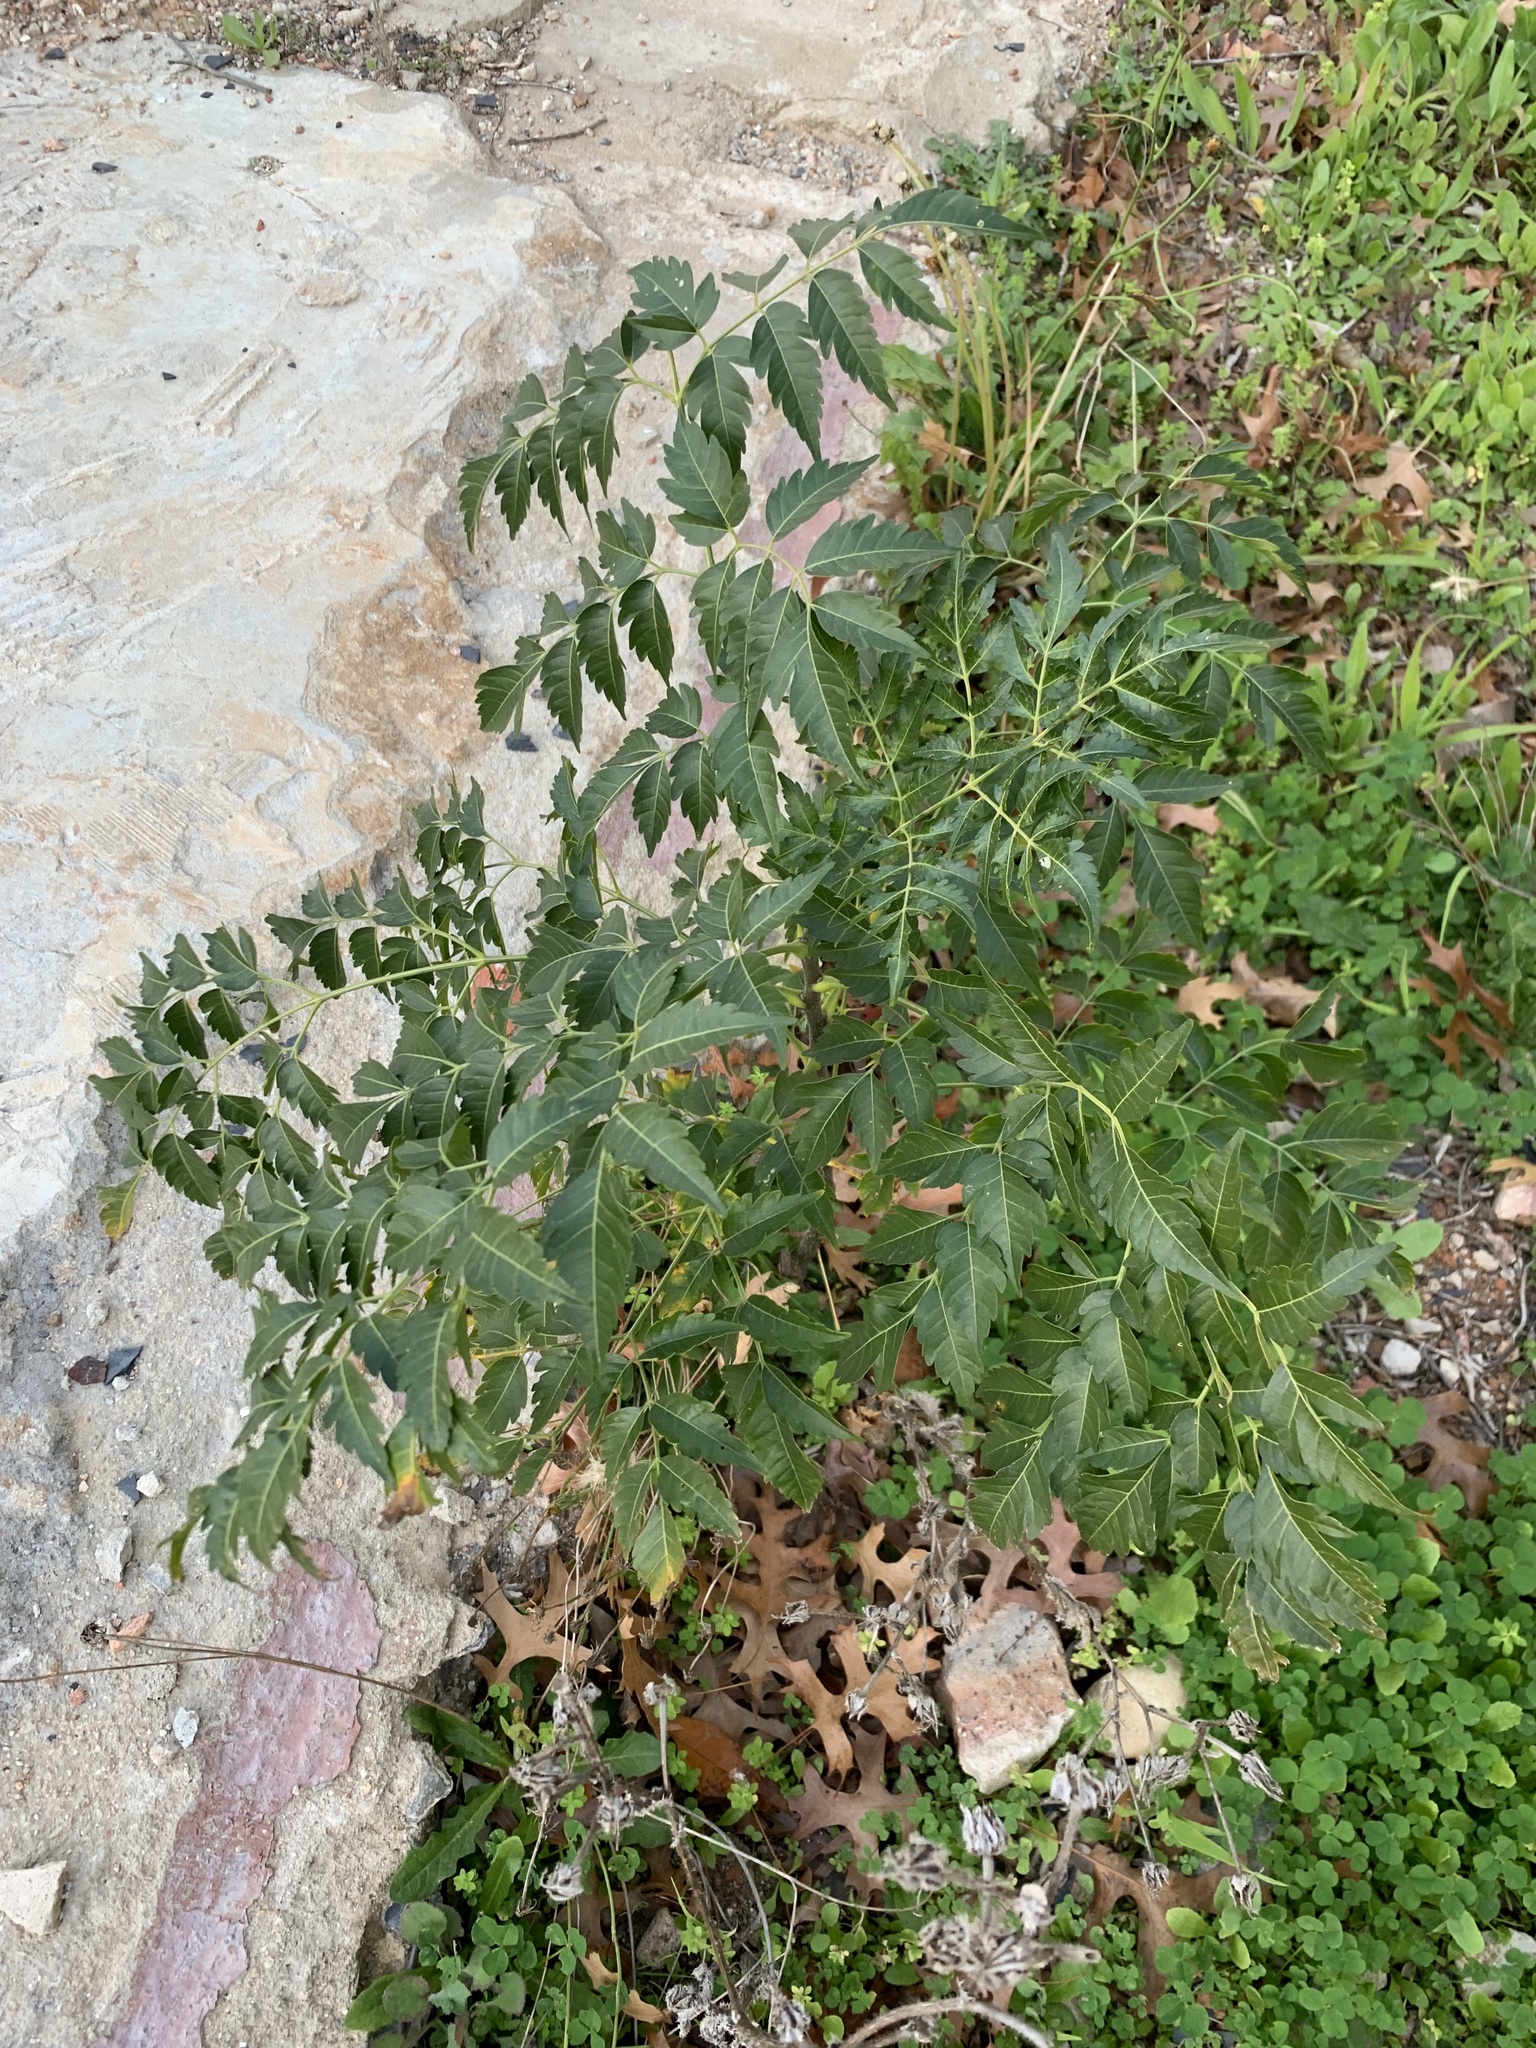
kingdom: Plantae
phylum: Tracheophyta
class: Magnoliopsida
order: Sapindales
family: Meliaceae
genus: Melia
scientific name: Melia azedarach
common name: Chinaberrytree
